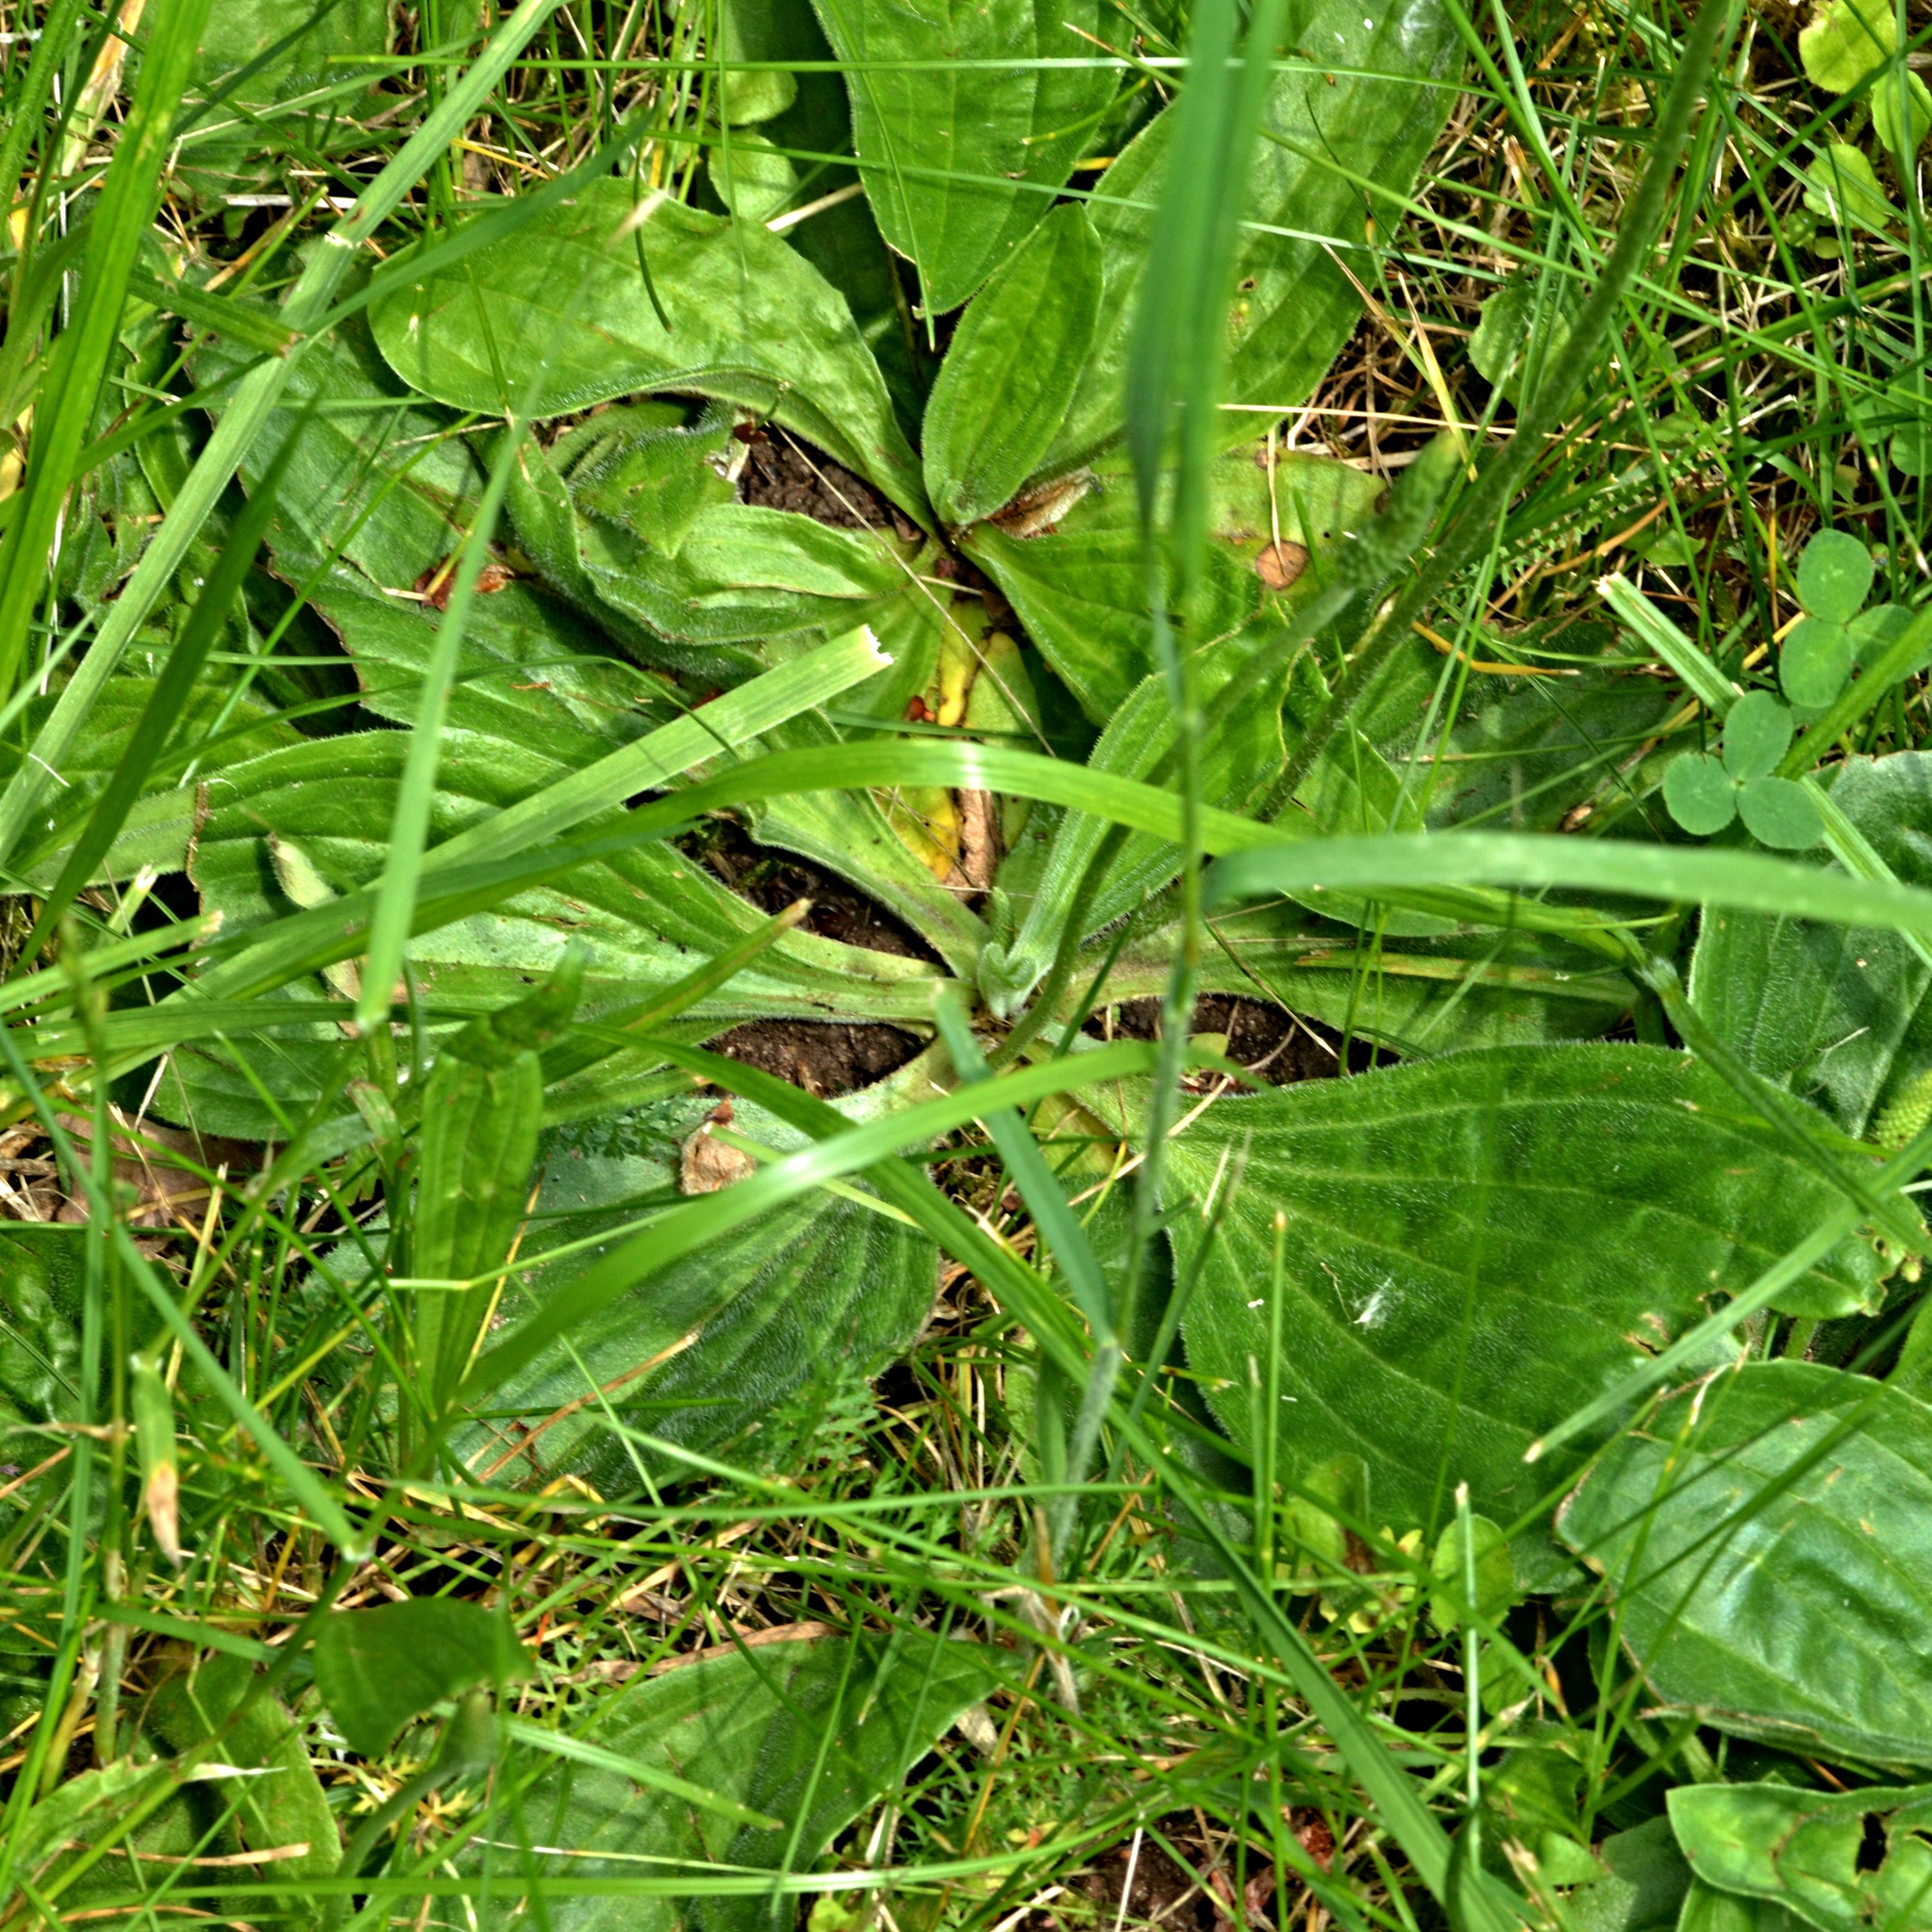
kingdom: Plantae
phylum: Tracheophyta
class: Magnoliopsida
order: Lamiales
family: Plantaginaceae
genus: Plantago
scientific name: Plantago media
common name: Hoary plantain
